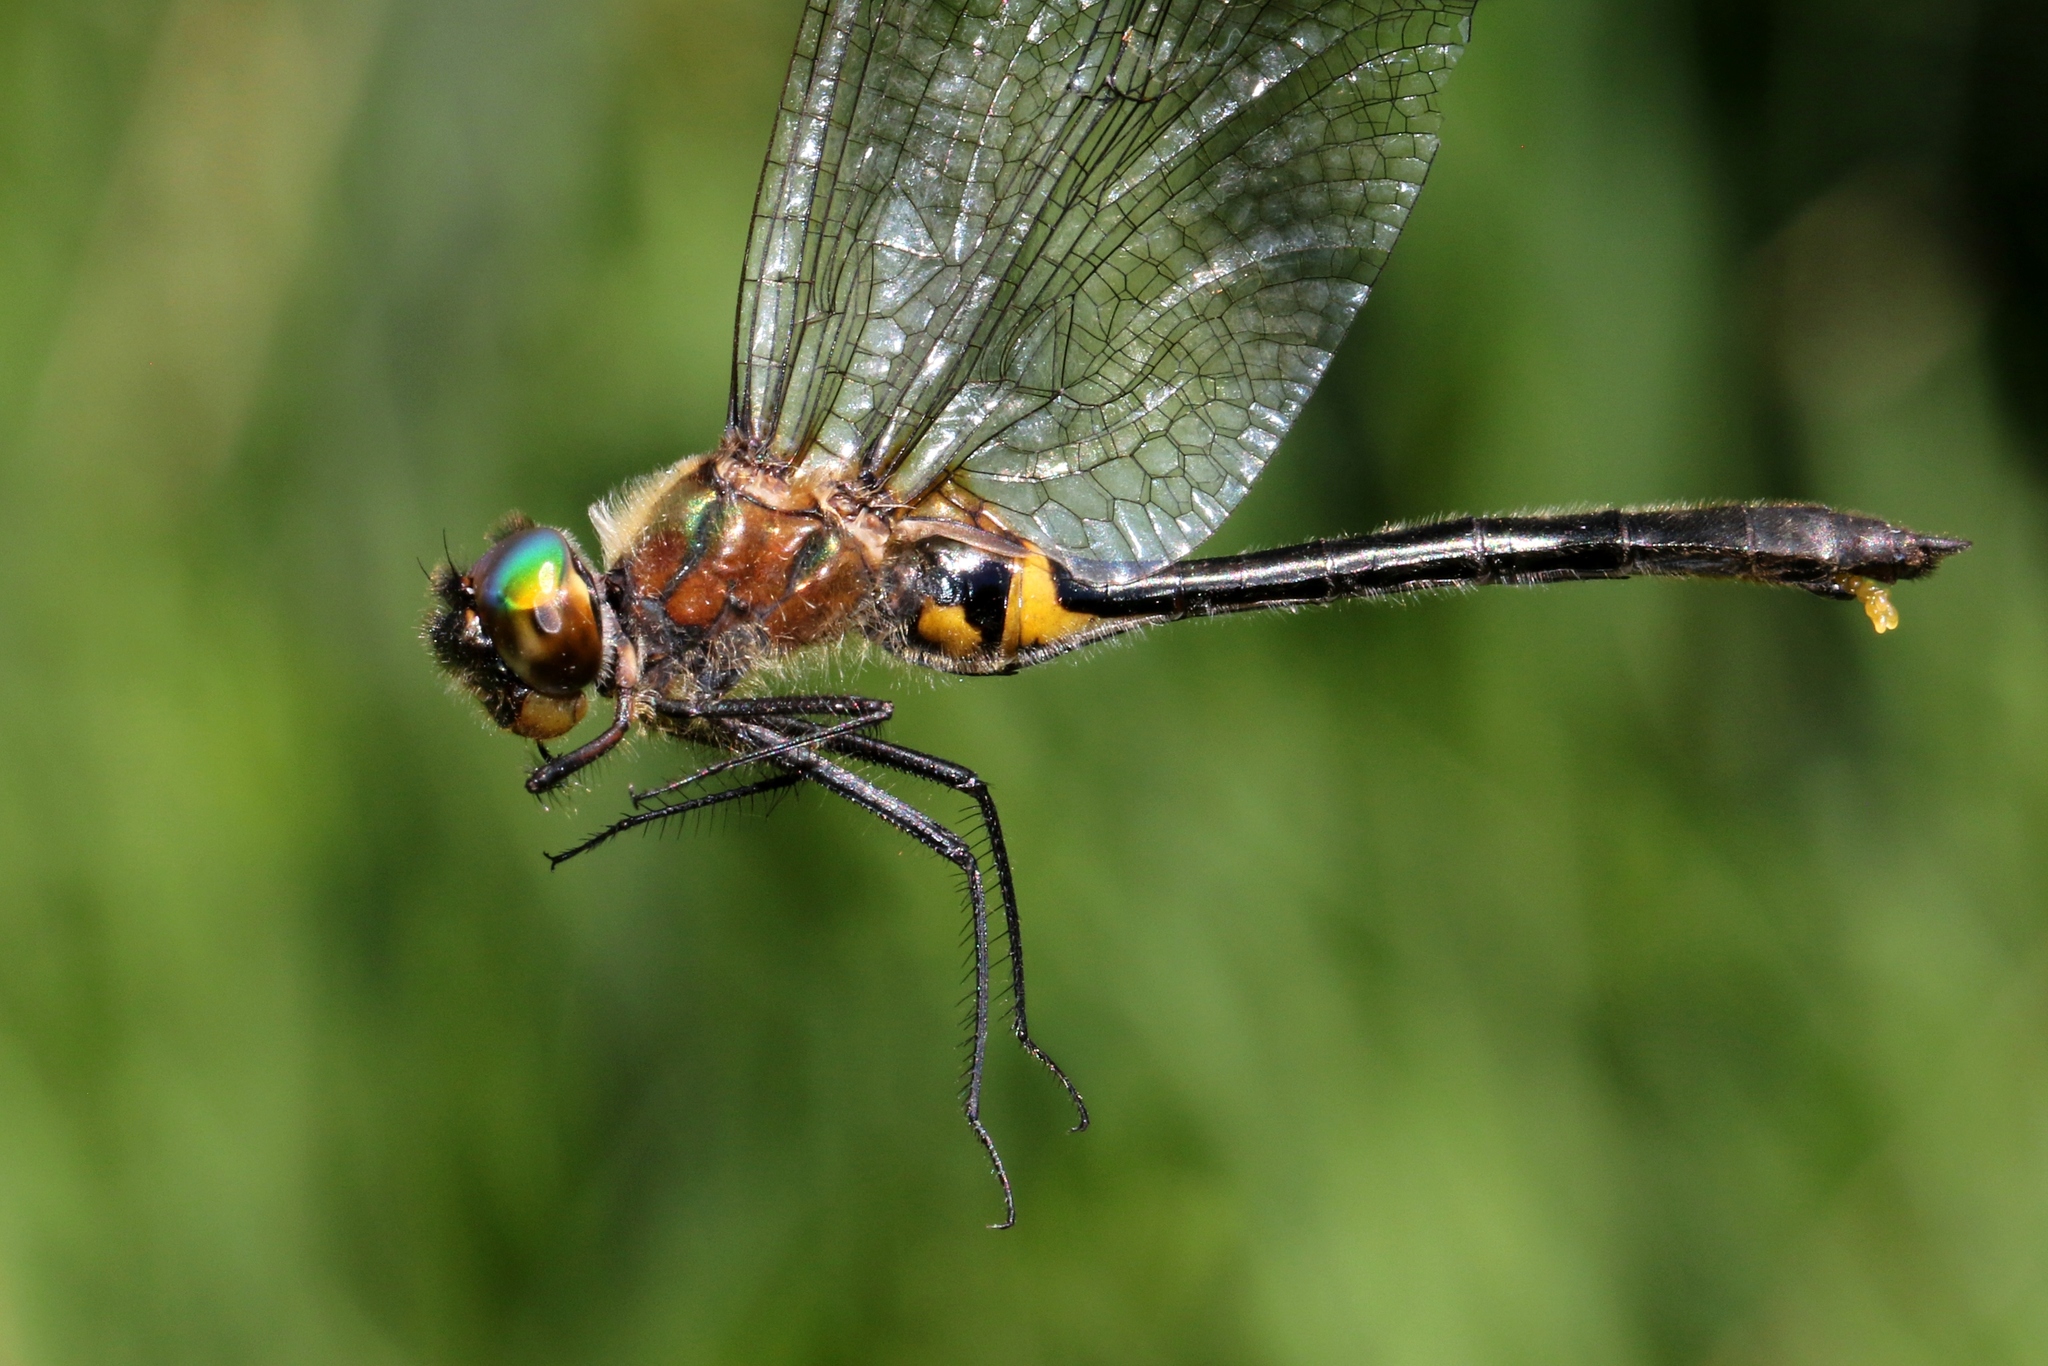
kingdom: Animalia
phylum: Arthropoda
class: Insecta
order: Odonata
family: Corduliidae
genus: Dorocordulia
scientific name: Dorocordulia libera
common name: Racket-tailed emerald
